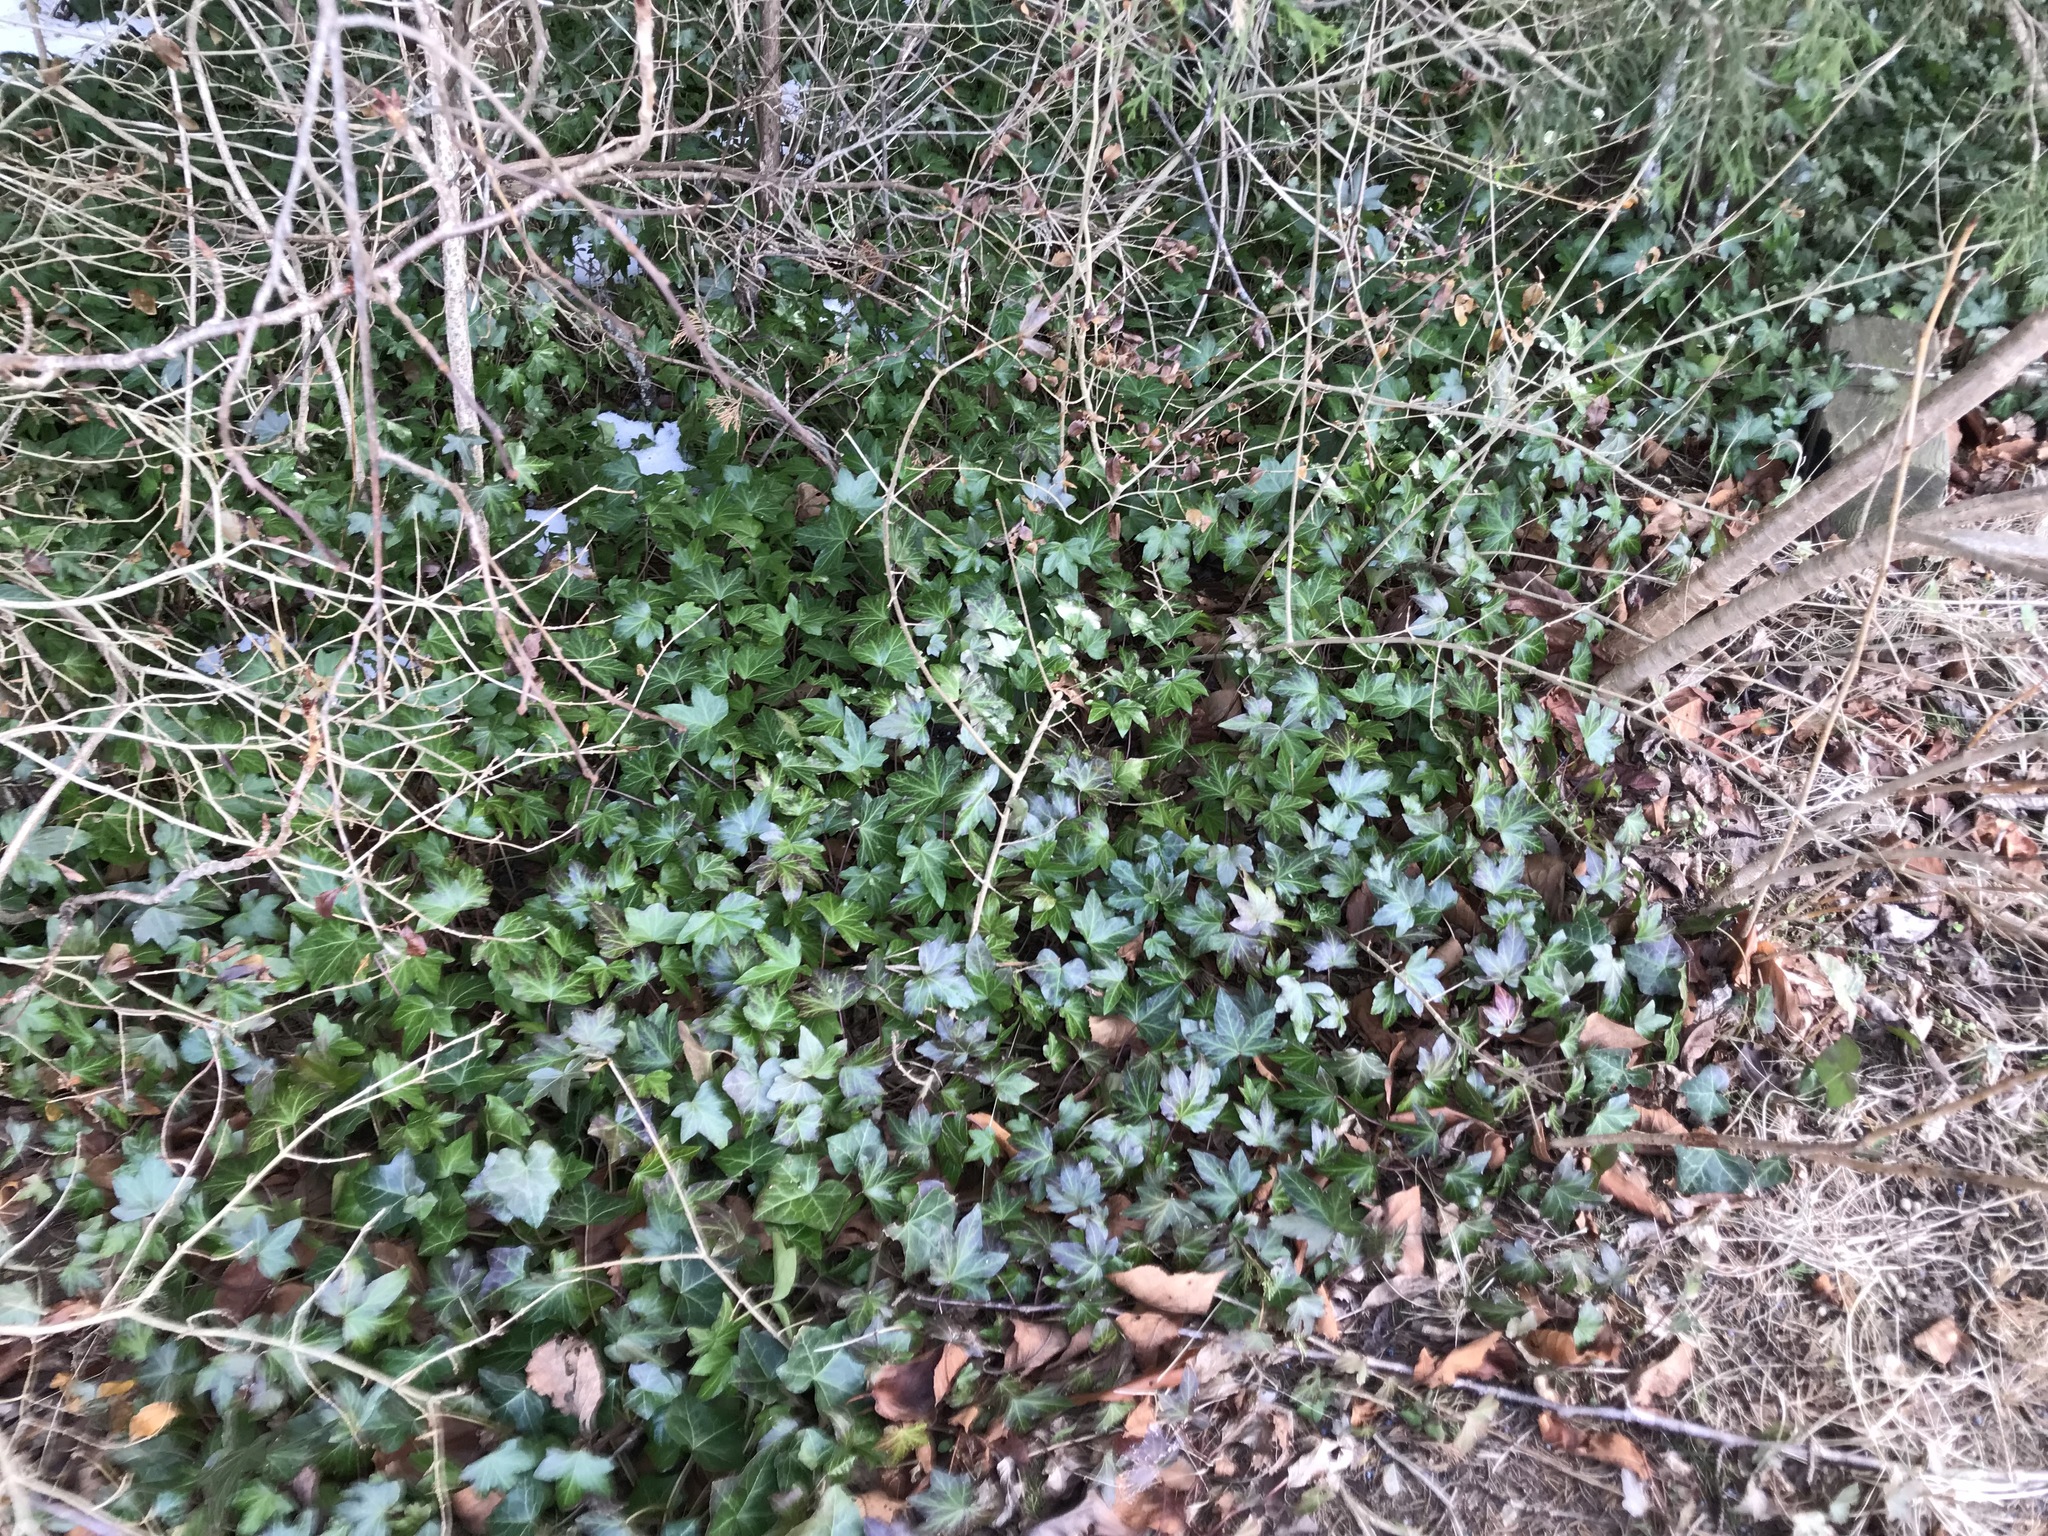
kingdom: Plantae
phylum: Tracheophyta
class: Magnoliopsida
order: Apiales
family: Araliaceae
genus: Hedera
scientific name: Hedera
